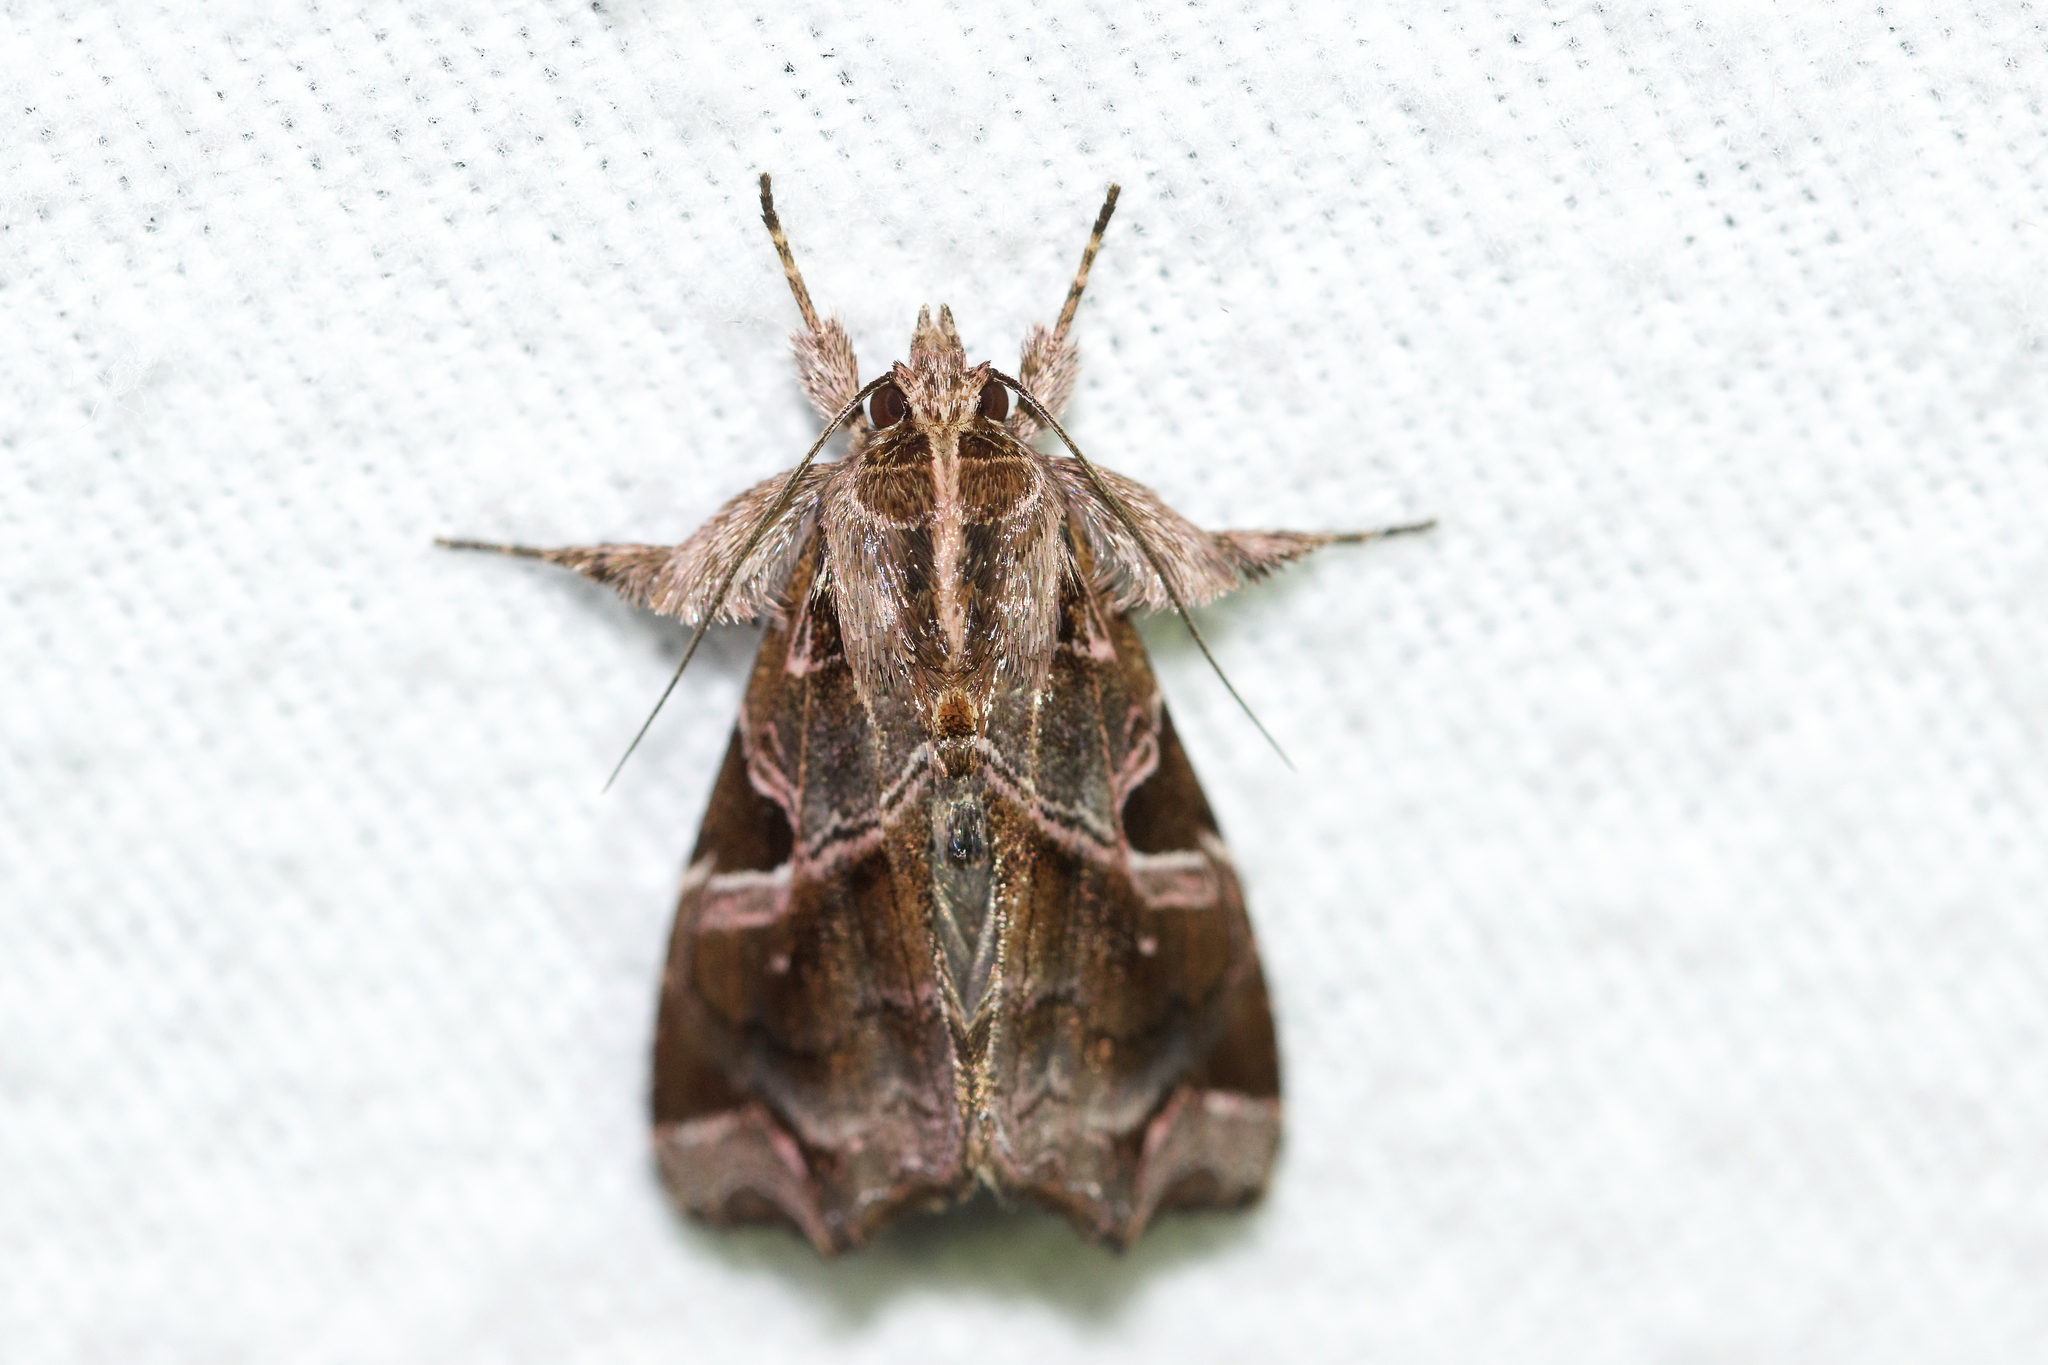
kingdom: Animalia
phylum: Arthropoda
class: Insecta
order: Lepidoptera
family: Noctuidae
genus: Callopistria
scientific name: Callopistria floridensis
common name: Florida fern moth
